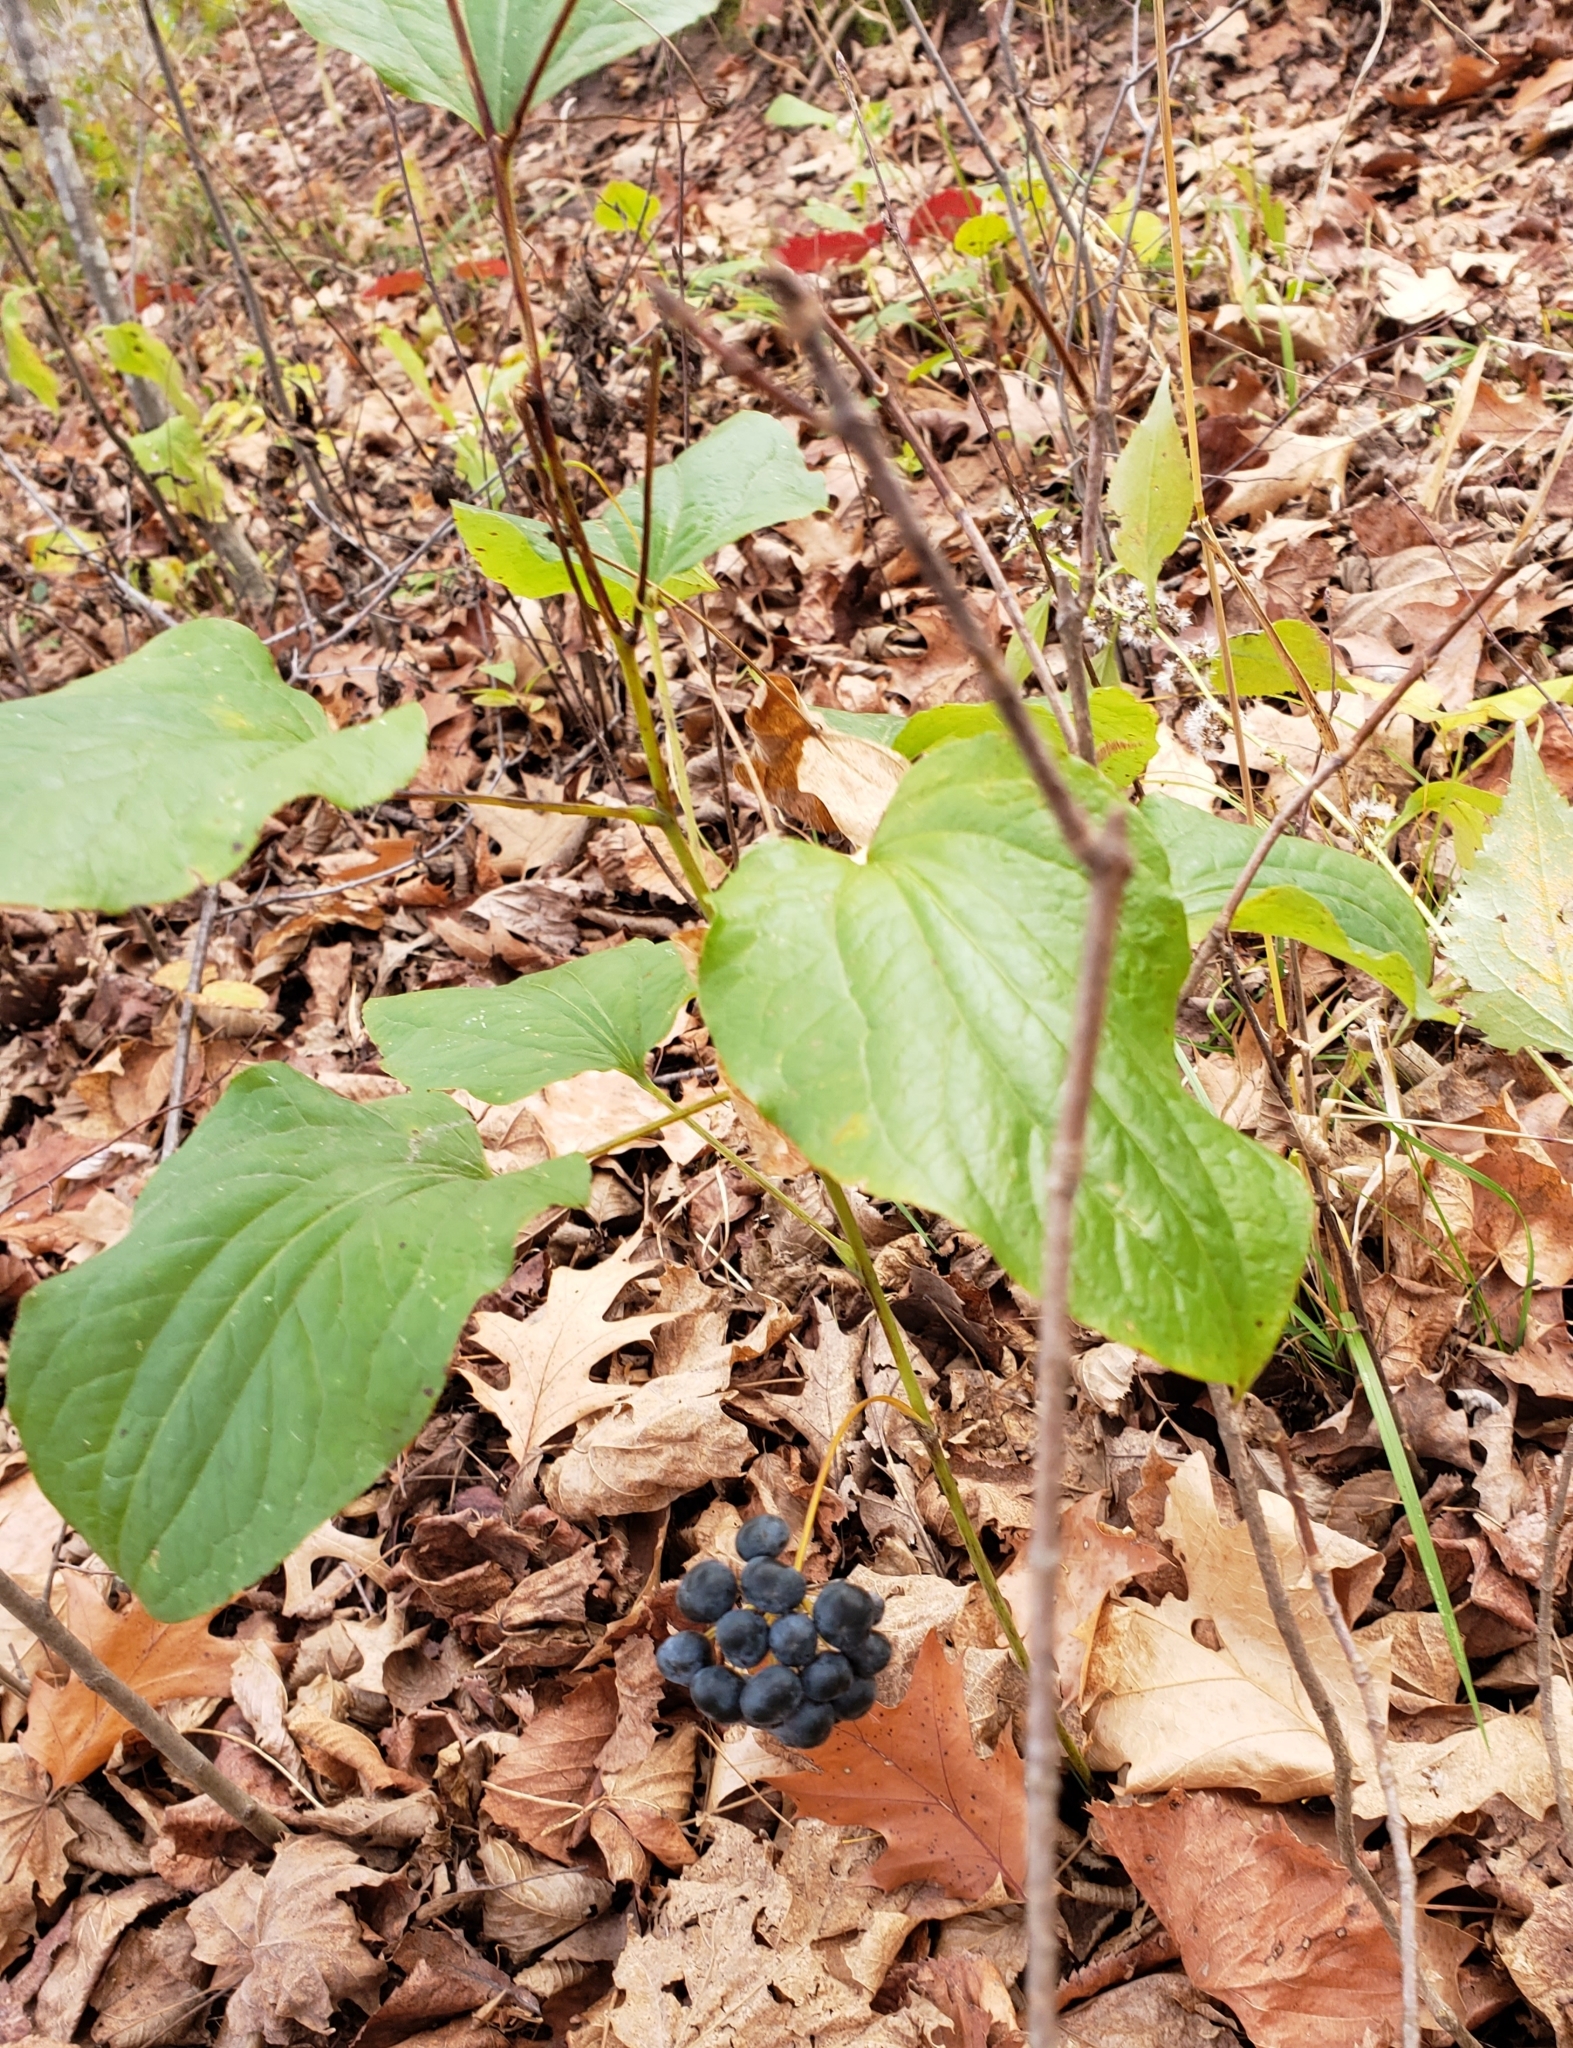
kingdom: Plantae
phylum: Tracheophyta
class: Liliopsida
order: Liliales
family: Smilacaceae
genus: Smilax
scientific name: Smilax lasioneura
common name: Blue ridge carrionflower
